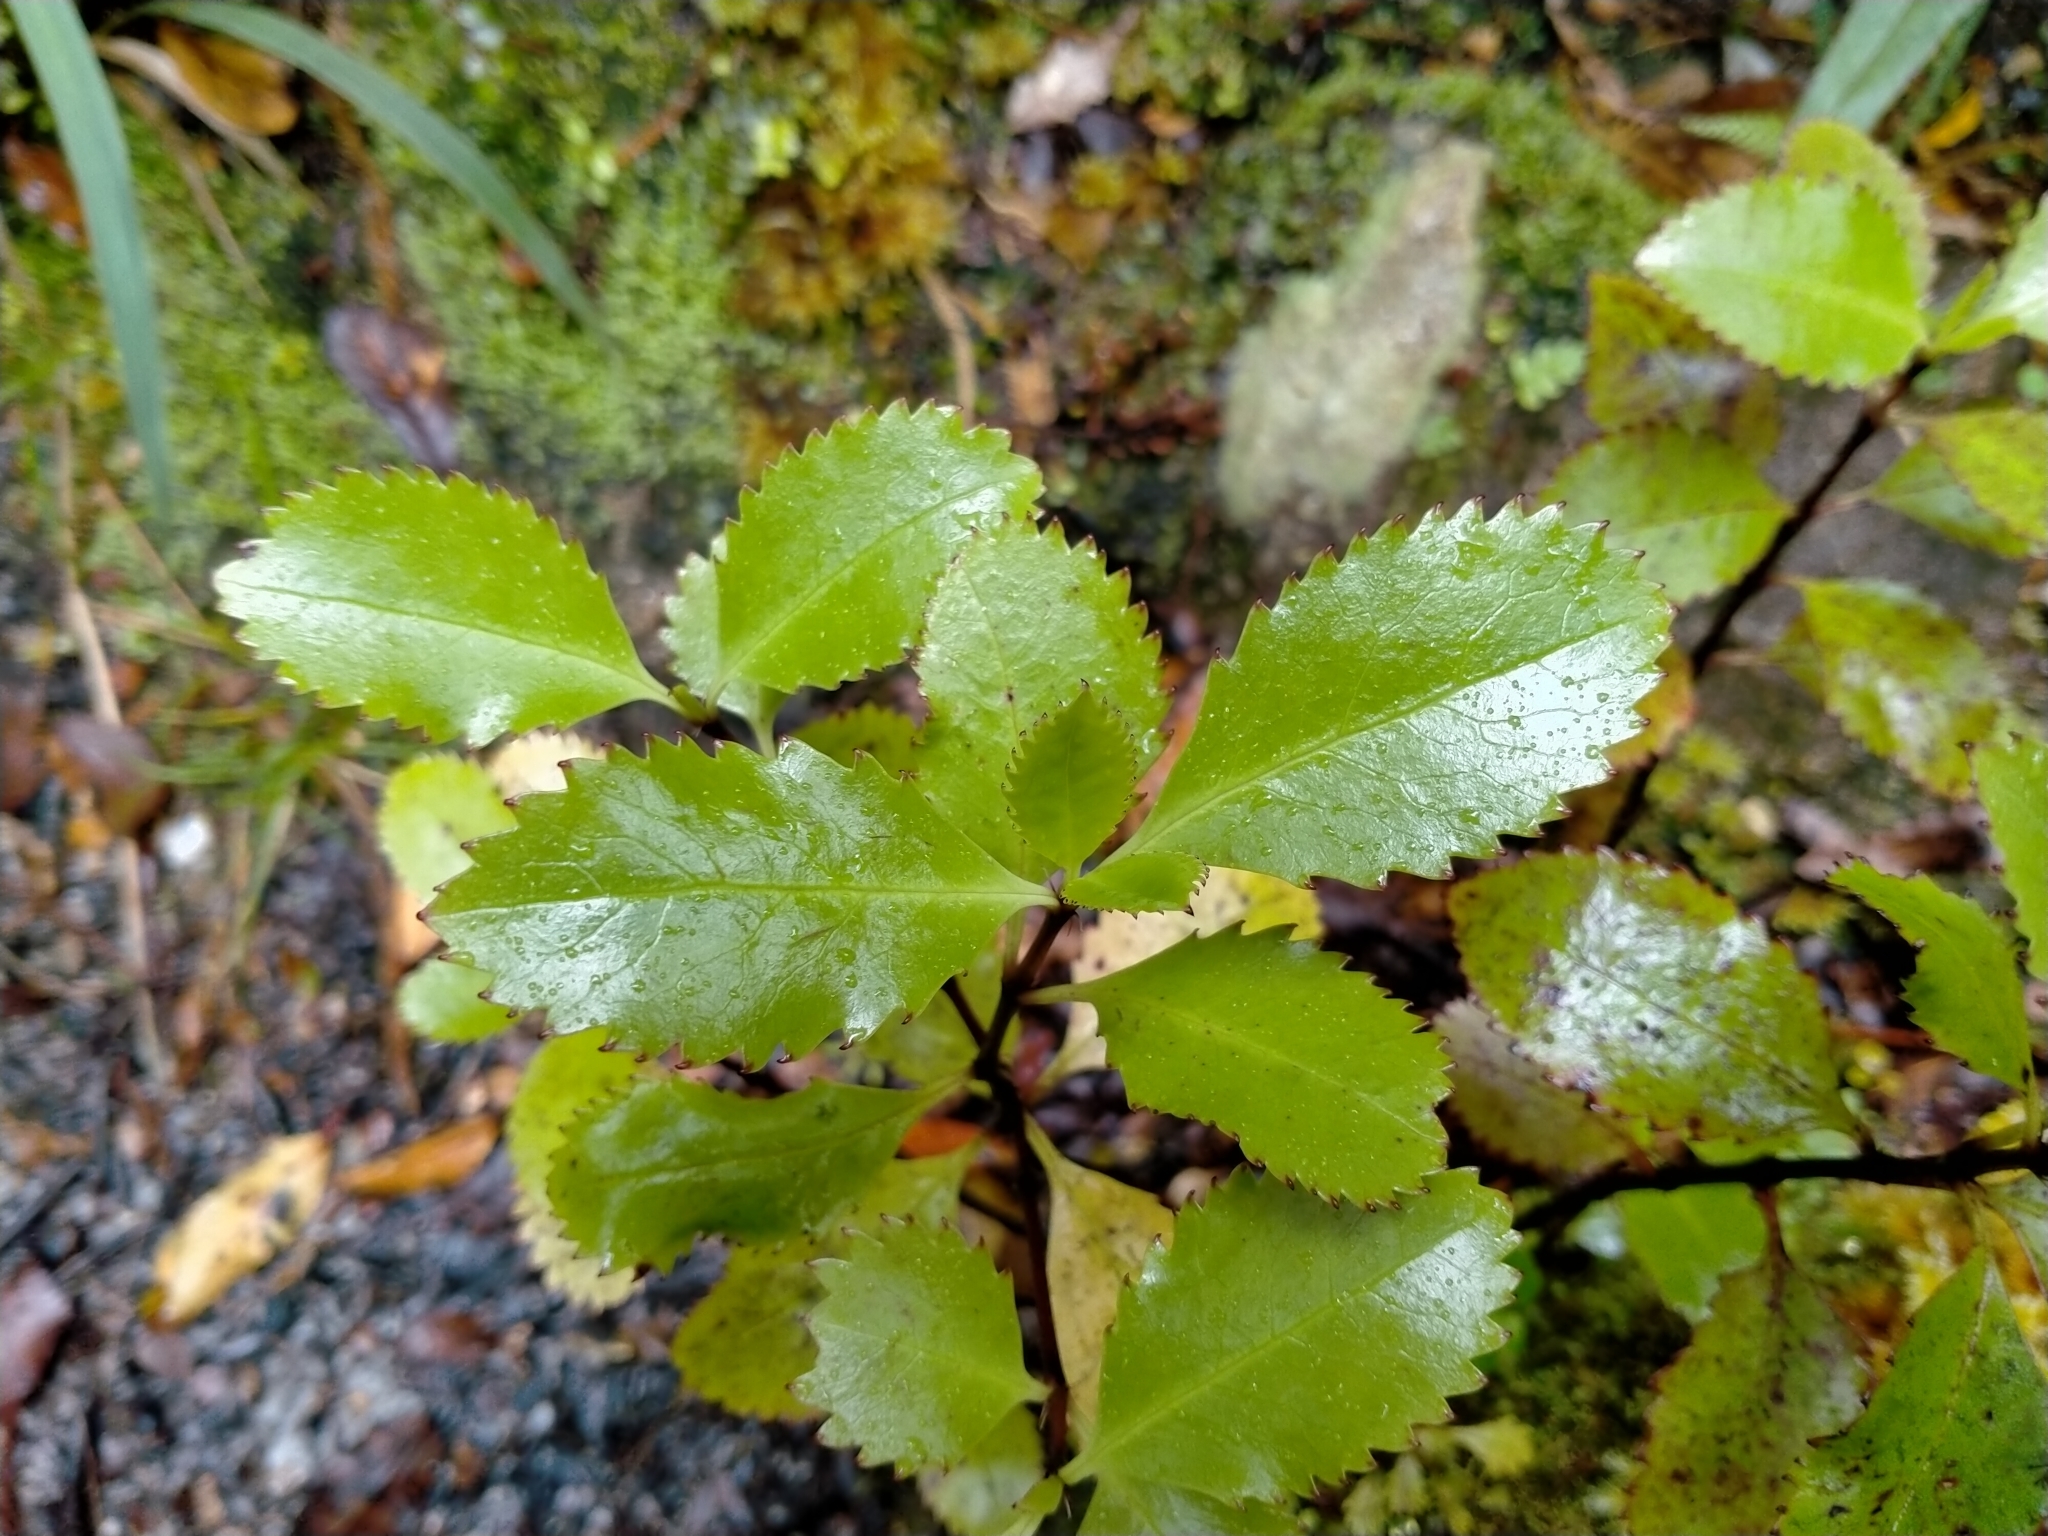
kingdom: Plantae
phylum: Tracheophyta
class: Magnoliopsida
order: Chloranthales
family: Chloranthaceae
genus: Ascarina
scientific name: Ascarina lucida
